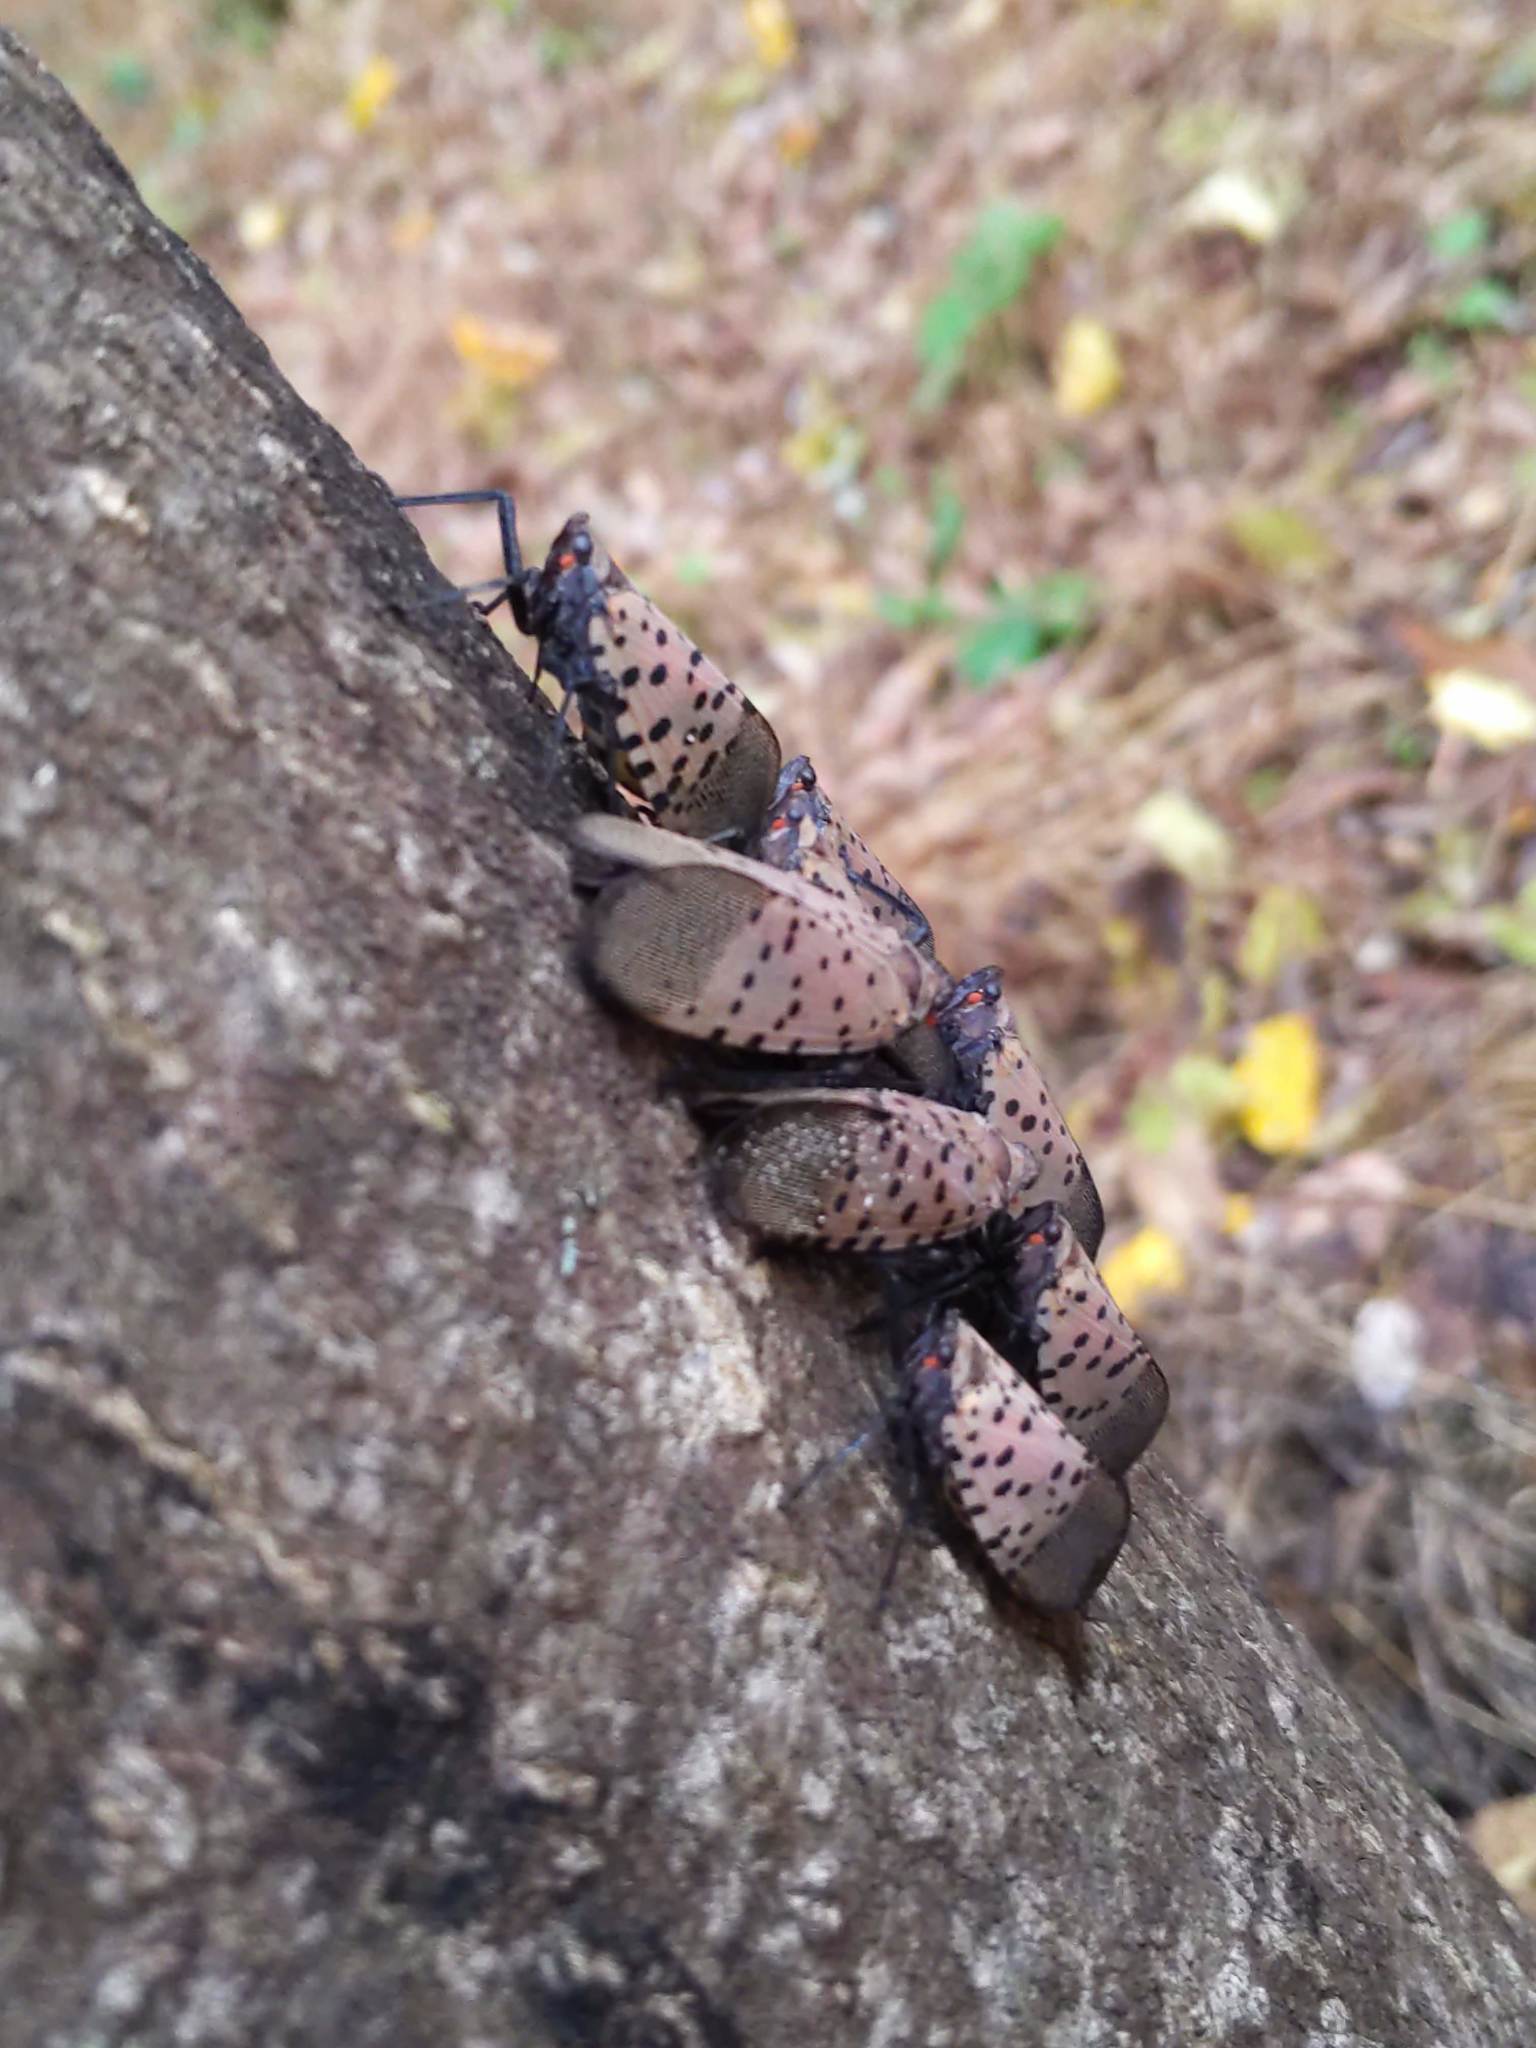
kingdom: Animalia
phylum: Arthropoda
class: Insecta
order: Hemiptera
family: Fulgoridae
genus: Lycorma
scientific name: Lycorma delicatula
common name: Spotted lanternfly
